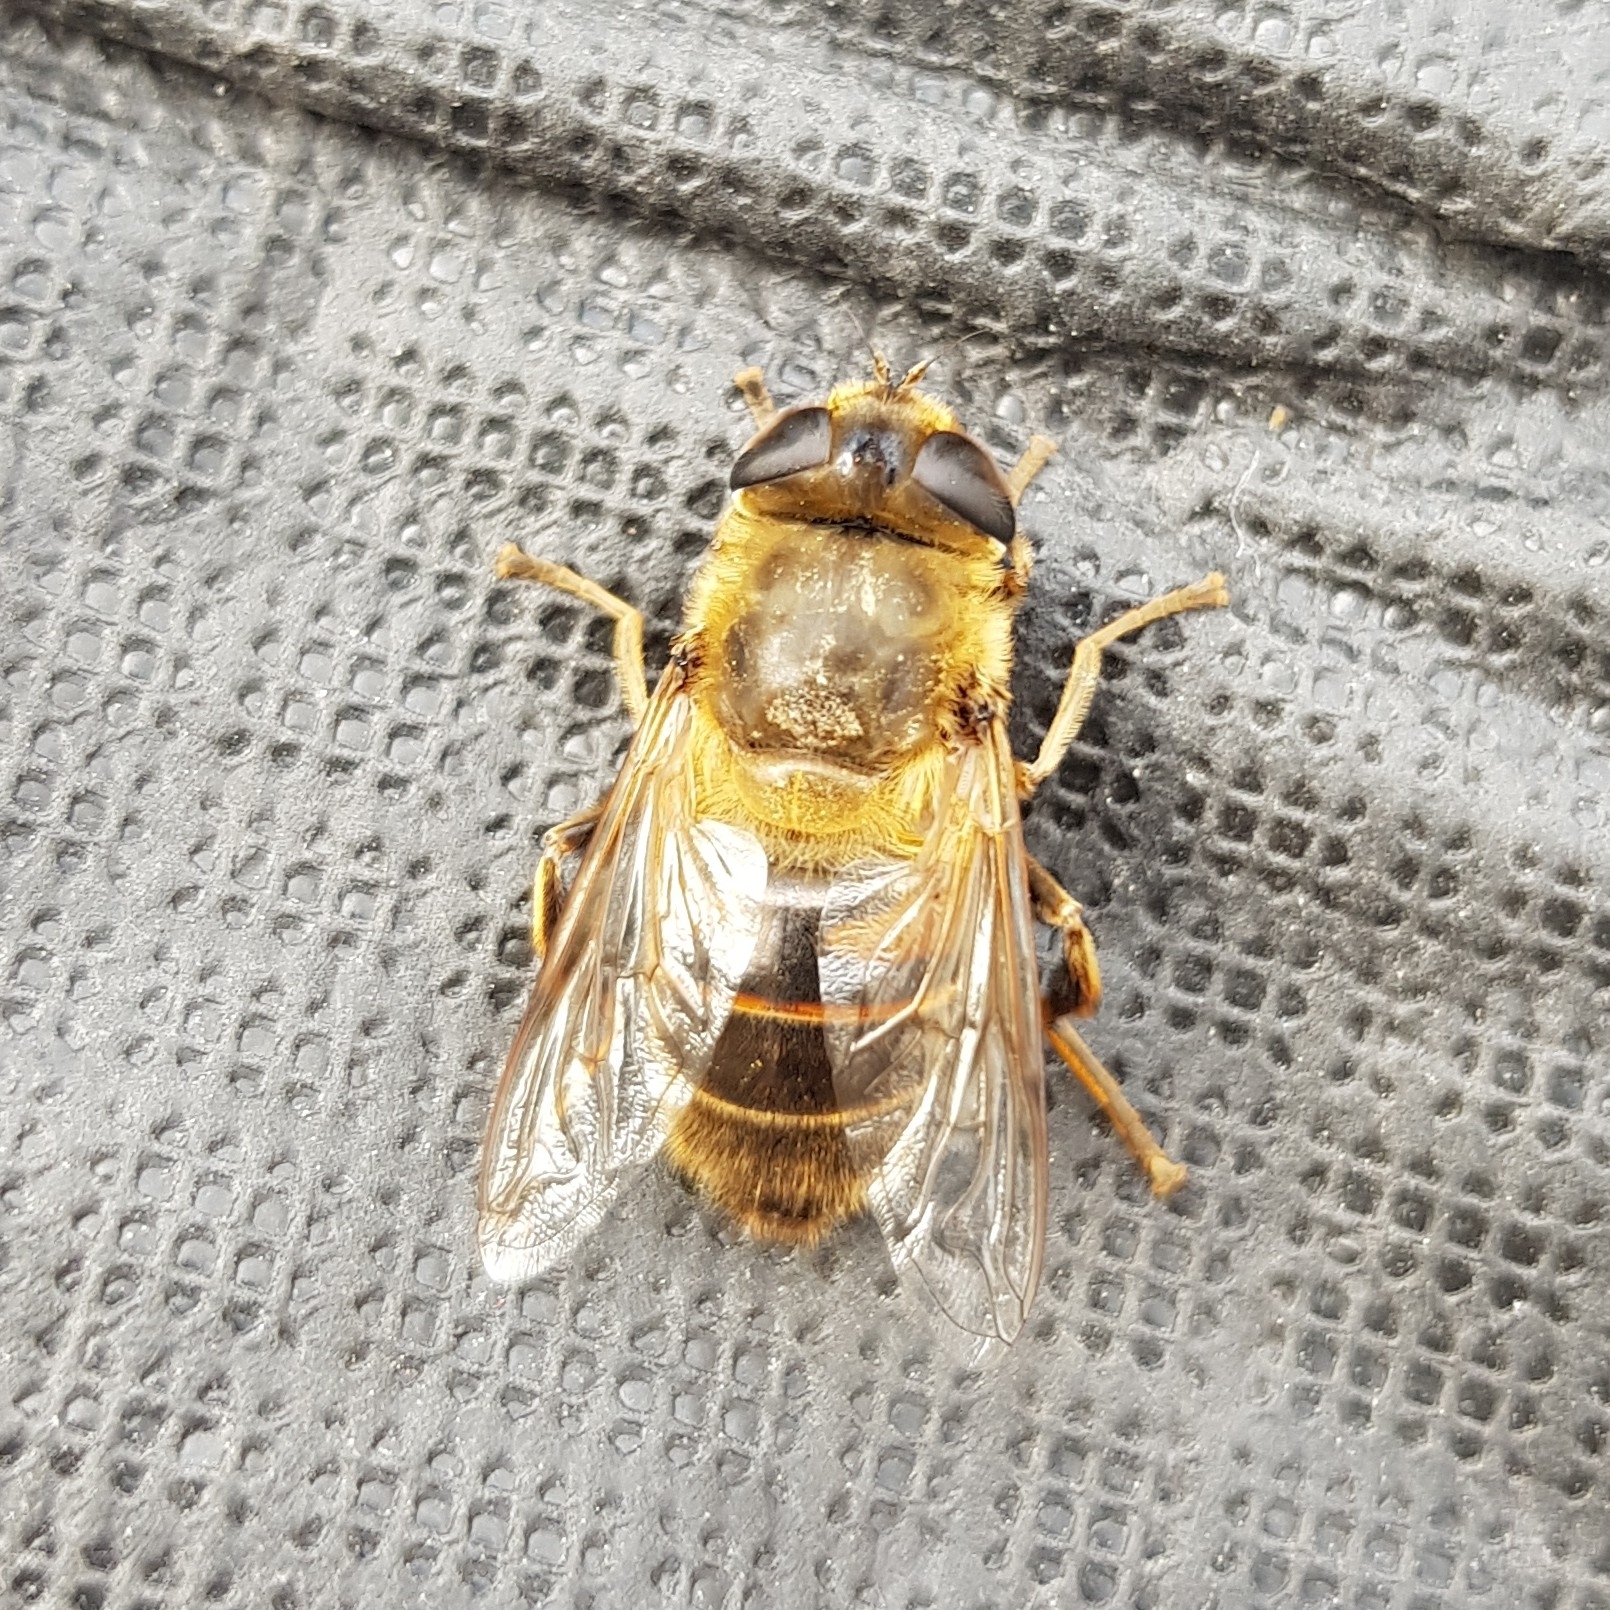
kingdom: Animalia
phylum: Arthropoda
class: Insecta
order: Diptera
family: Syrphidae
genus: Eristalis
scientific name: Eristalis tenax
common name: Drone fly
